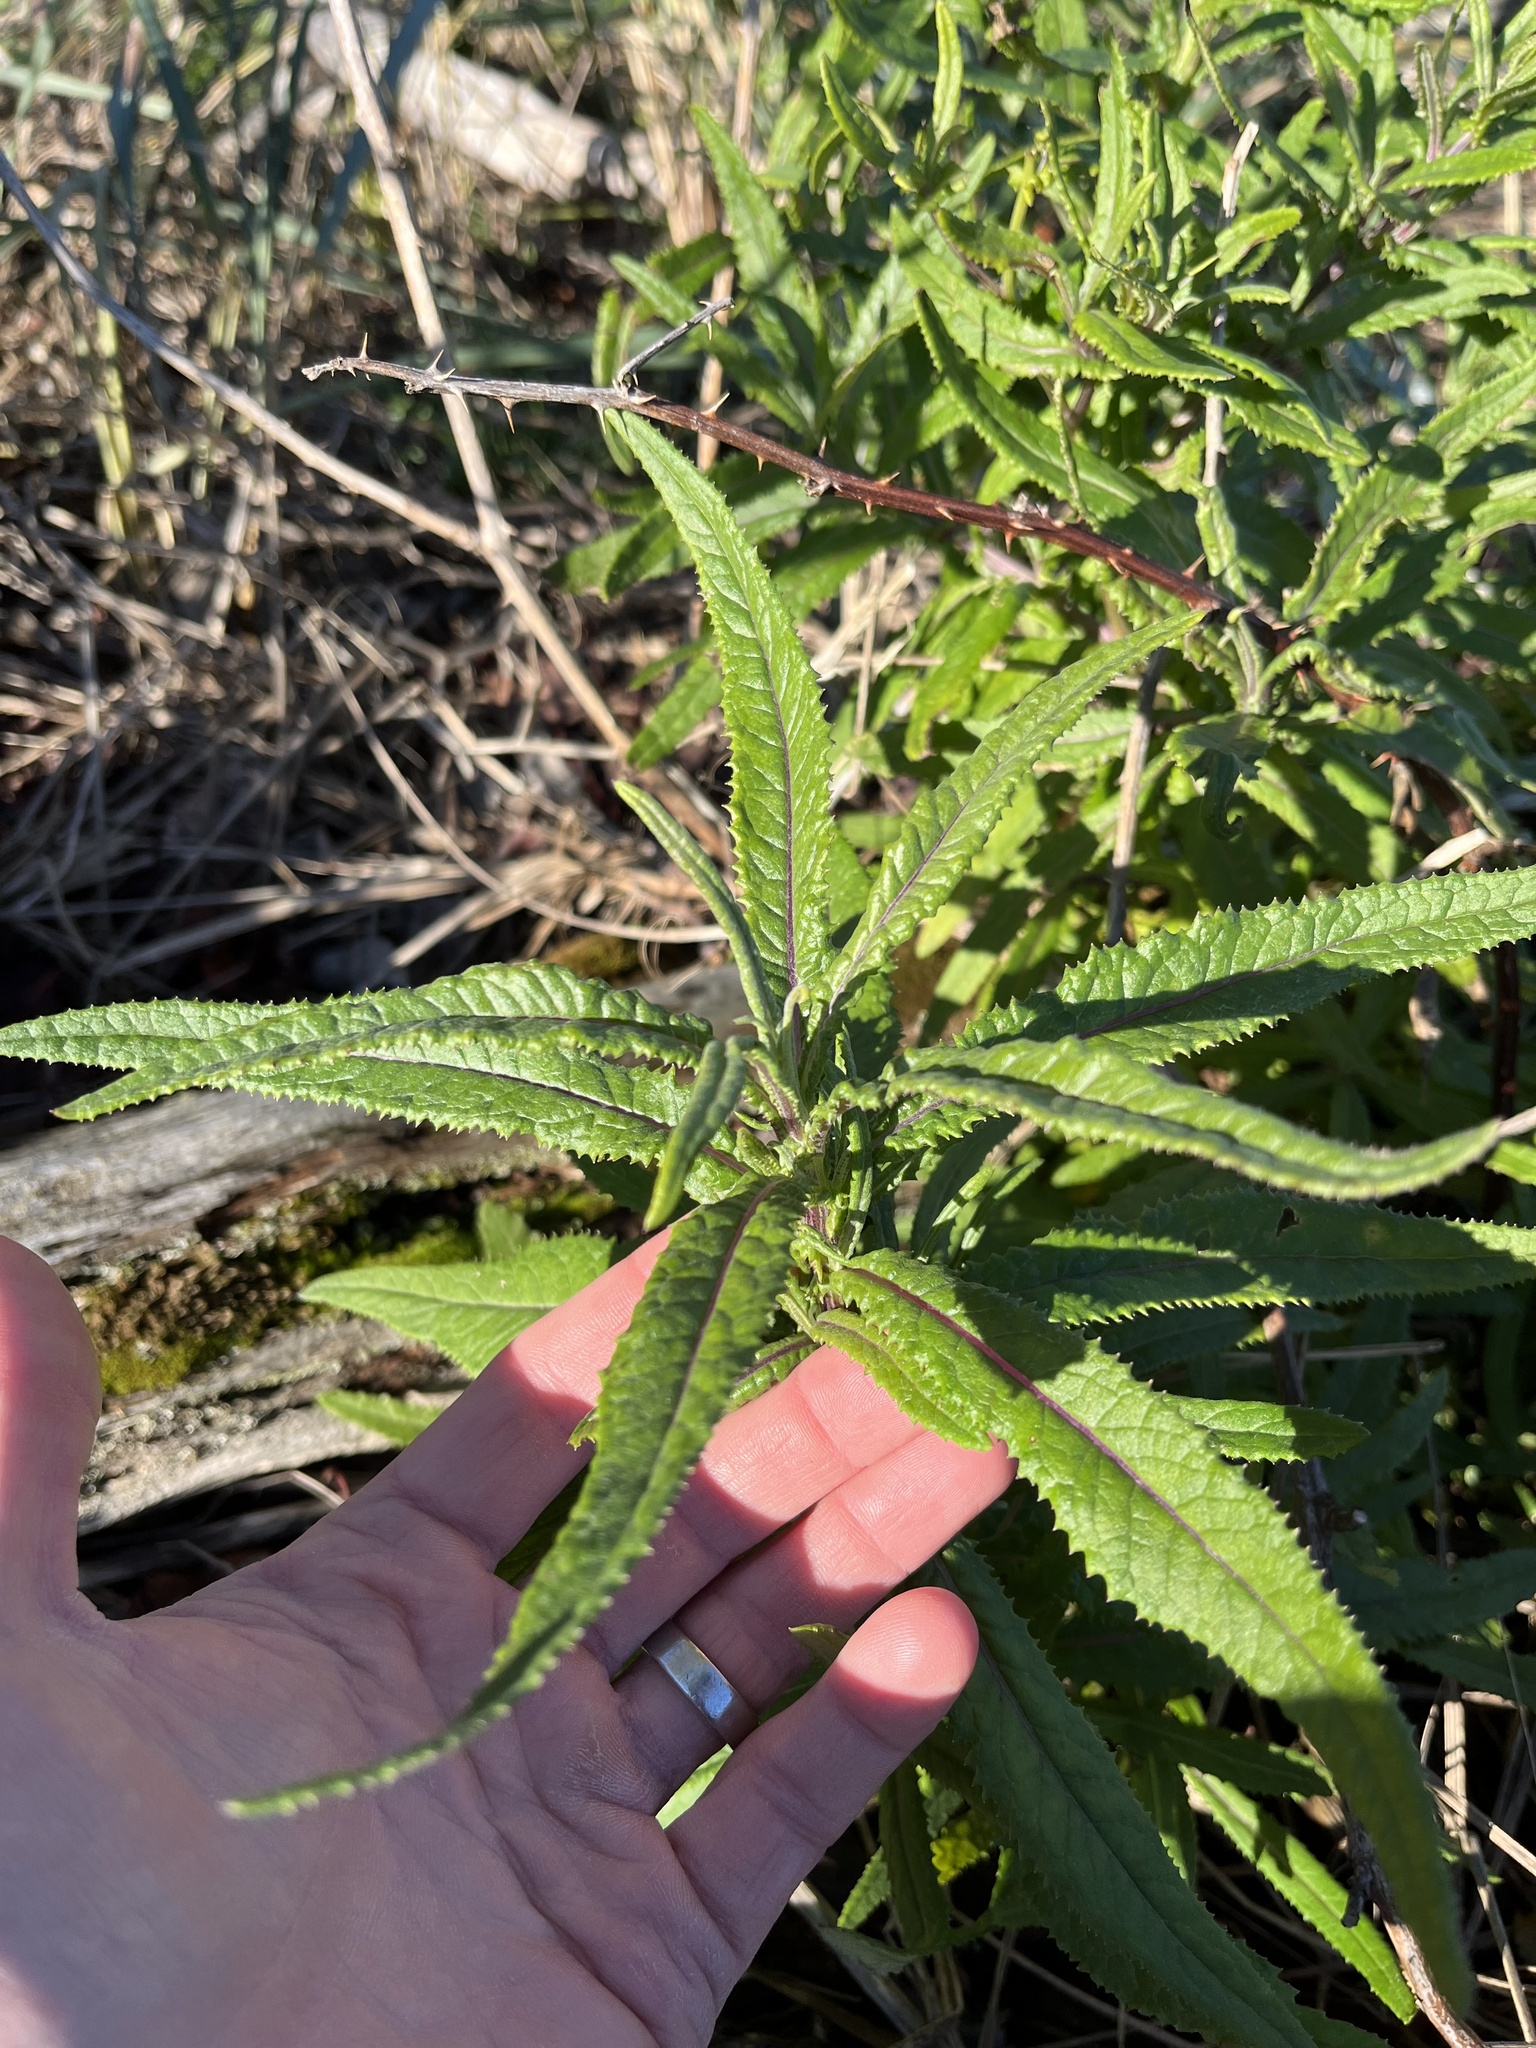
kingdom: Plantae
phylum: Tracheophyta
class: Magnoliopsida
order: Asterales
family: Asteraceae
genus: Senecio
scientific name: Senecio minimus
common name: Toothed fireweed
